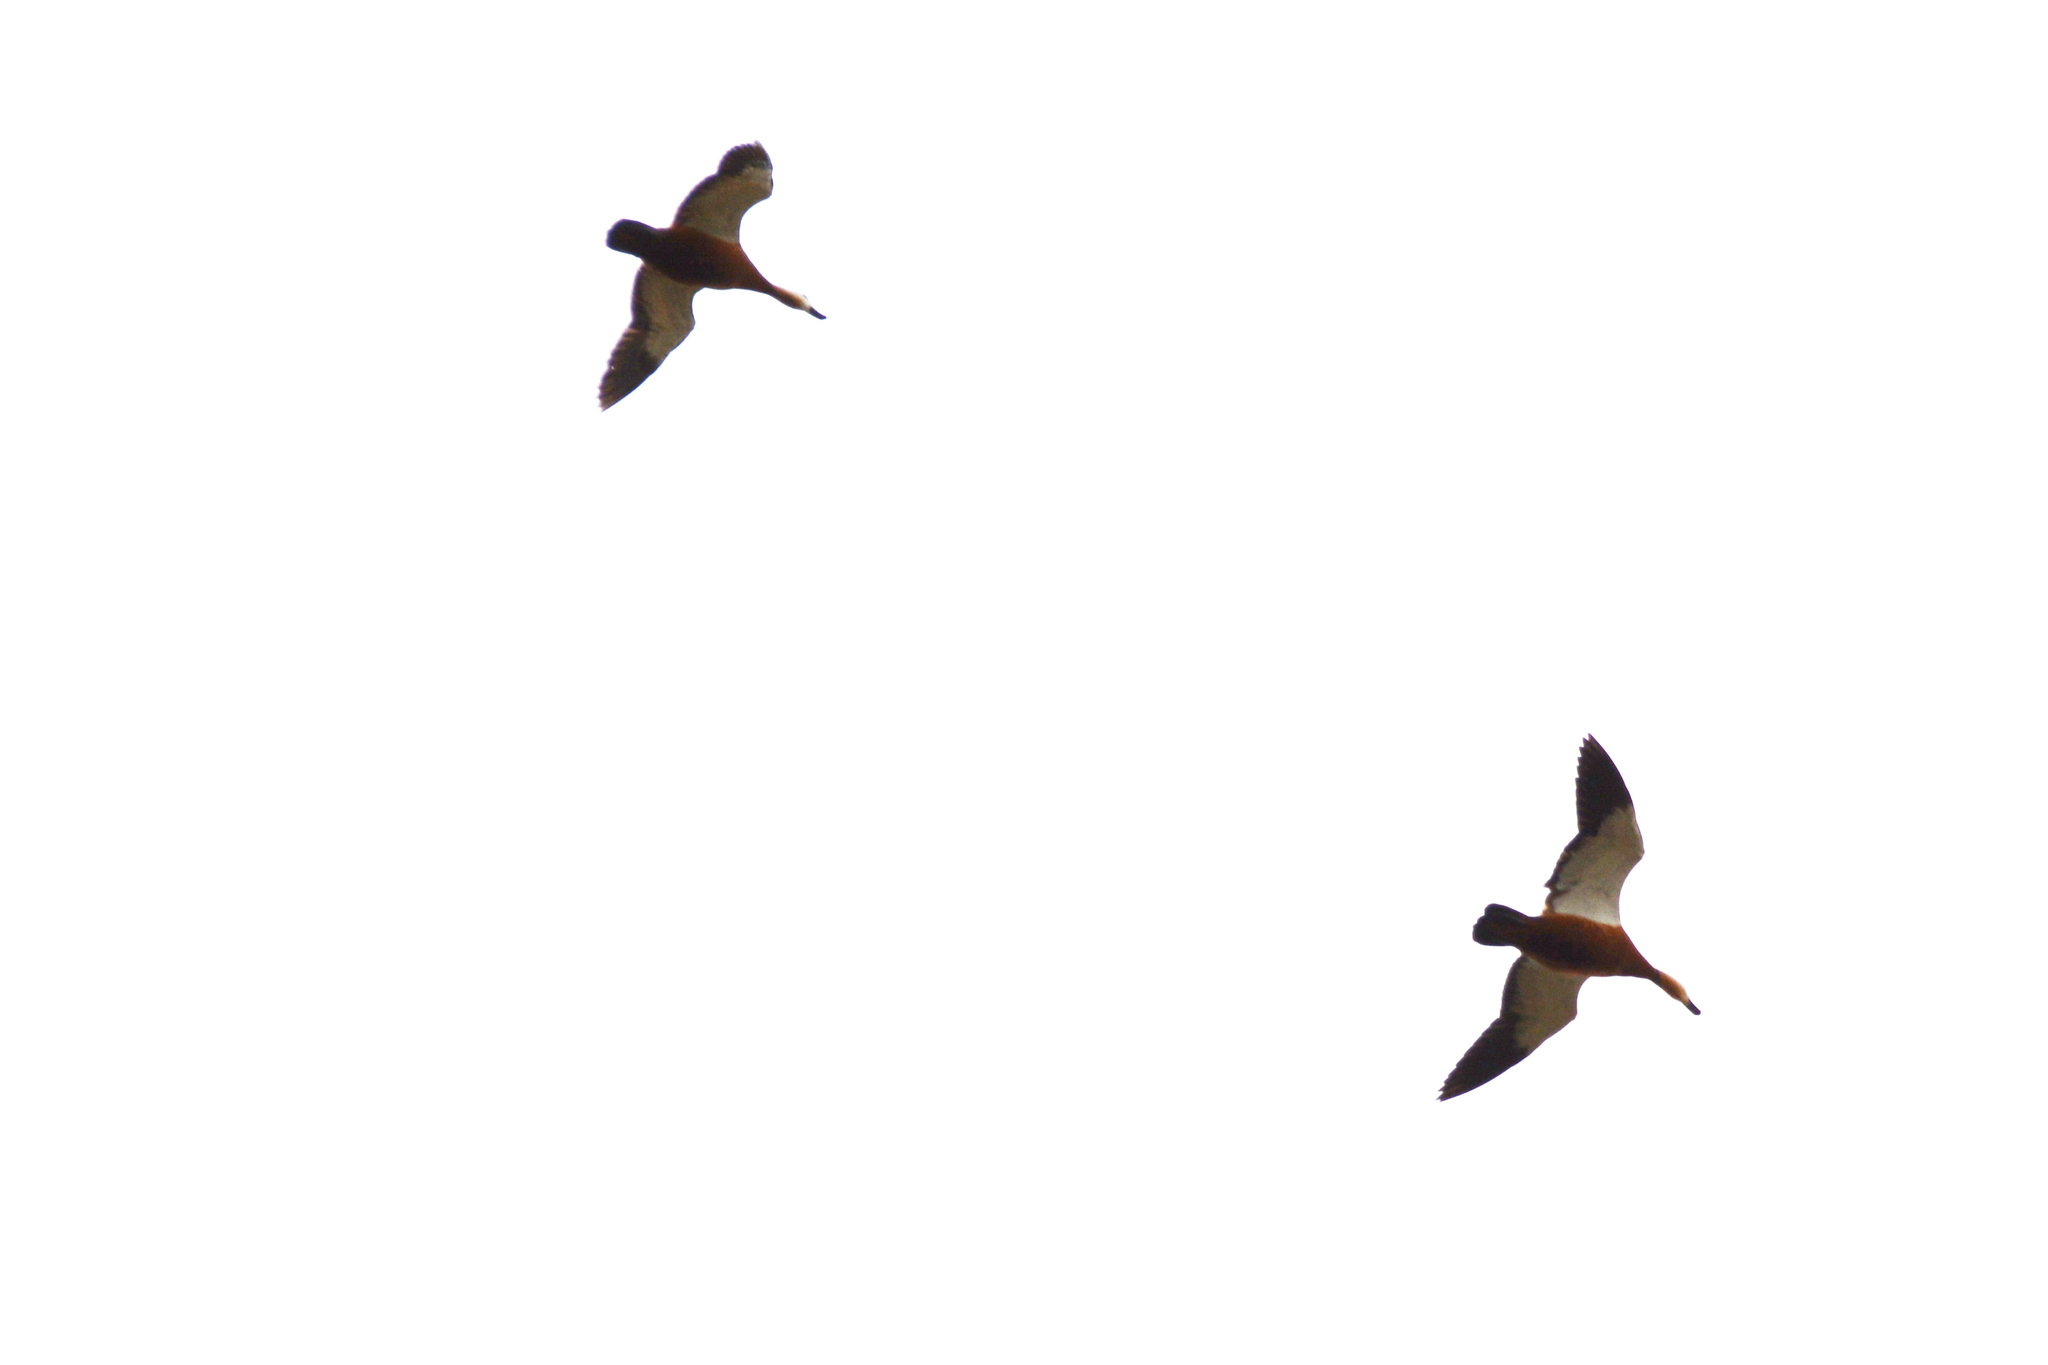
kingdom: Animalia
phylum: Chordata
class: Aves
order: Anseriformes
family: Anatidae
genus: Tadorna
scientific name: Tadorna ferruginea
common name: Ruddy shelduck
